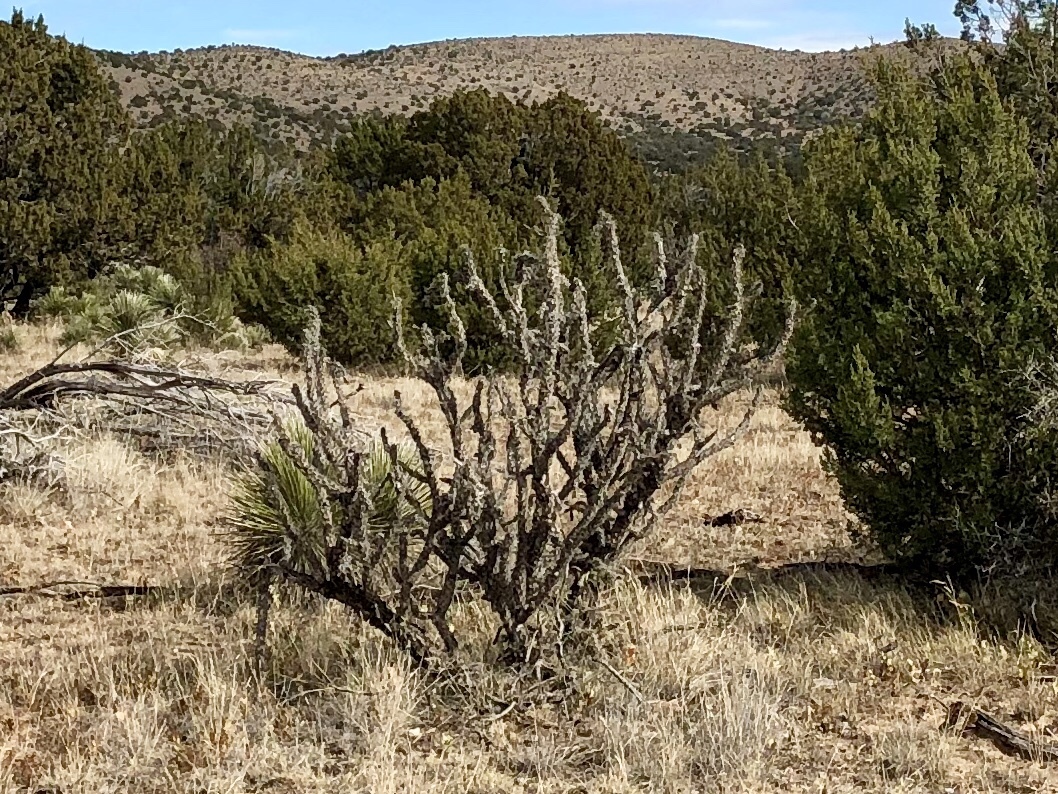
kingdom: Plantae
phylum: Tracheophyta
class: Magnoliopsida
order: Ericales
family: Fouquieriaceae
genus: Fouquieria
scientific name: Fouquieria splendens
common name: Vine-cactus
